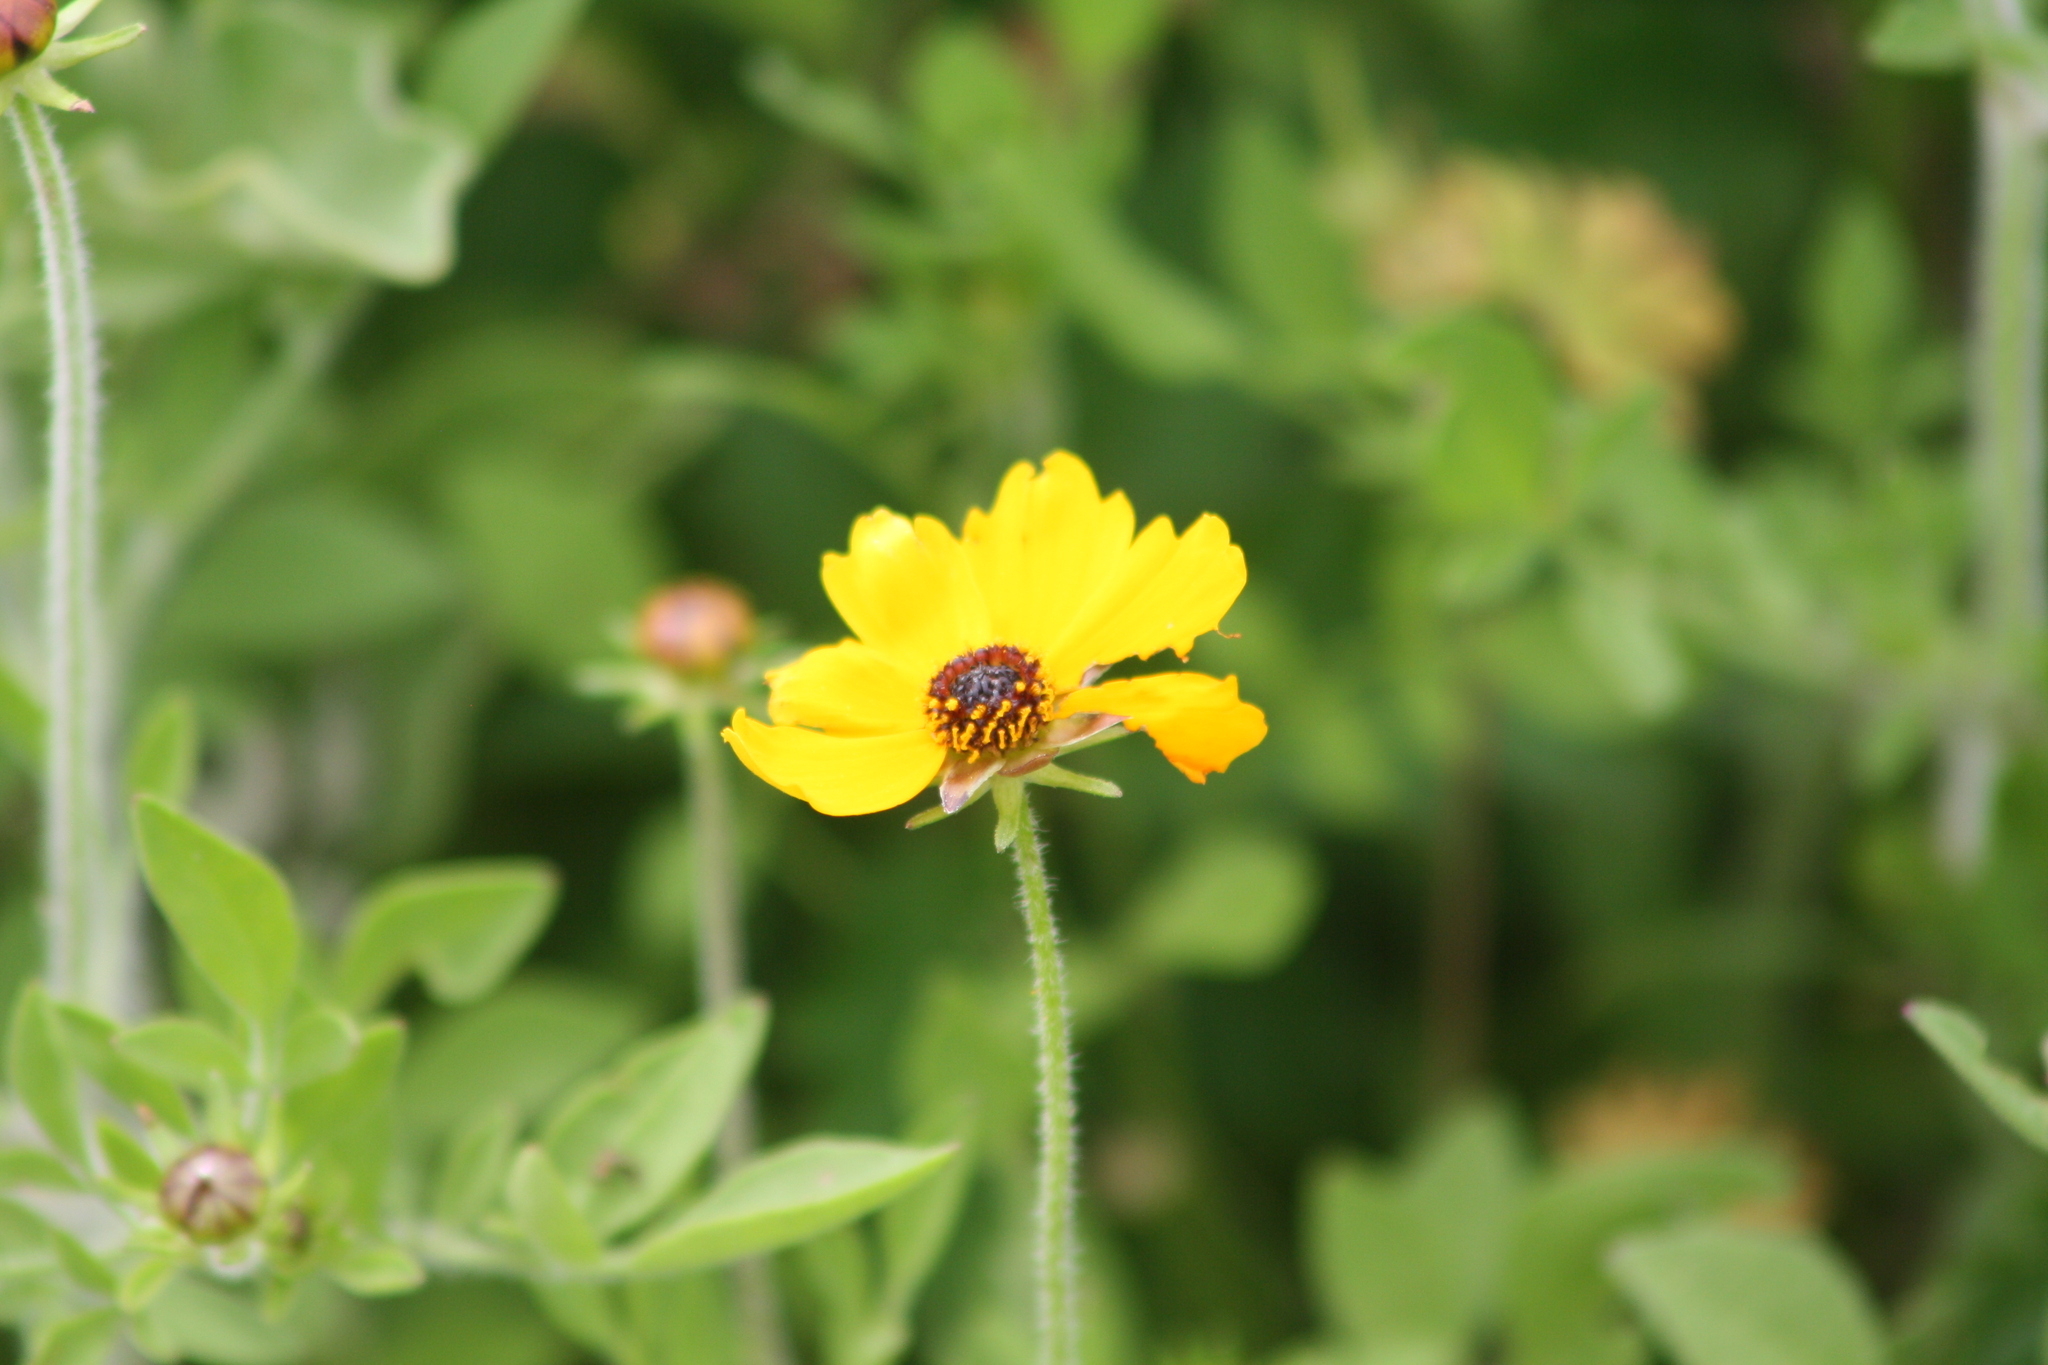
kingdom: Plantae
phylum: Tracheophyta
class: Magnoliopsida
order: Asterales
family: Asteraceae
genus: Coreopsis
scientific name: Coreopsis basalis
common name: Golden-mane coreopsis
